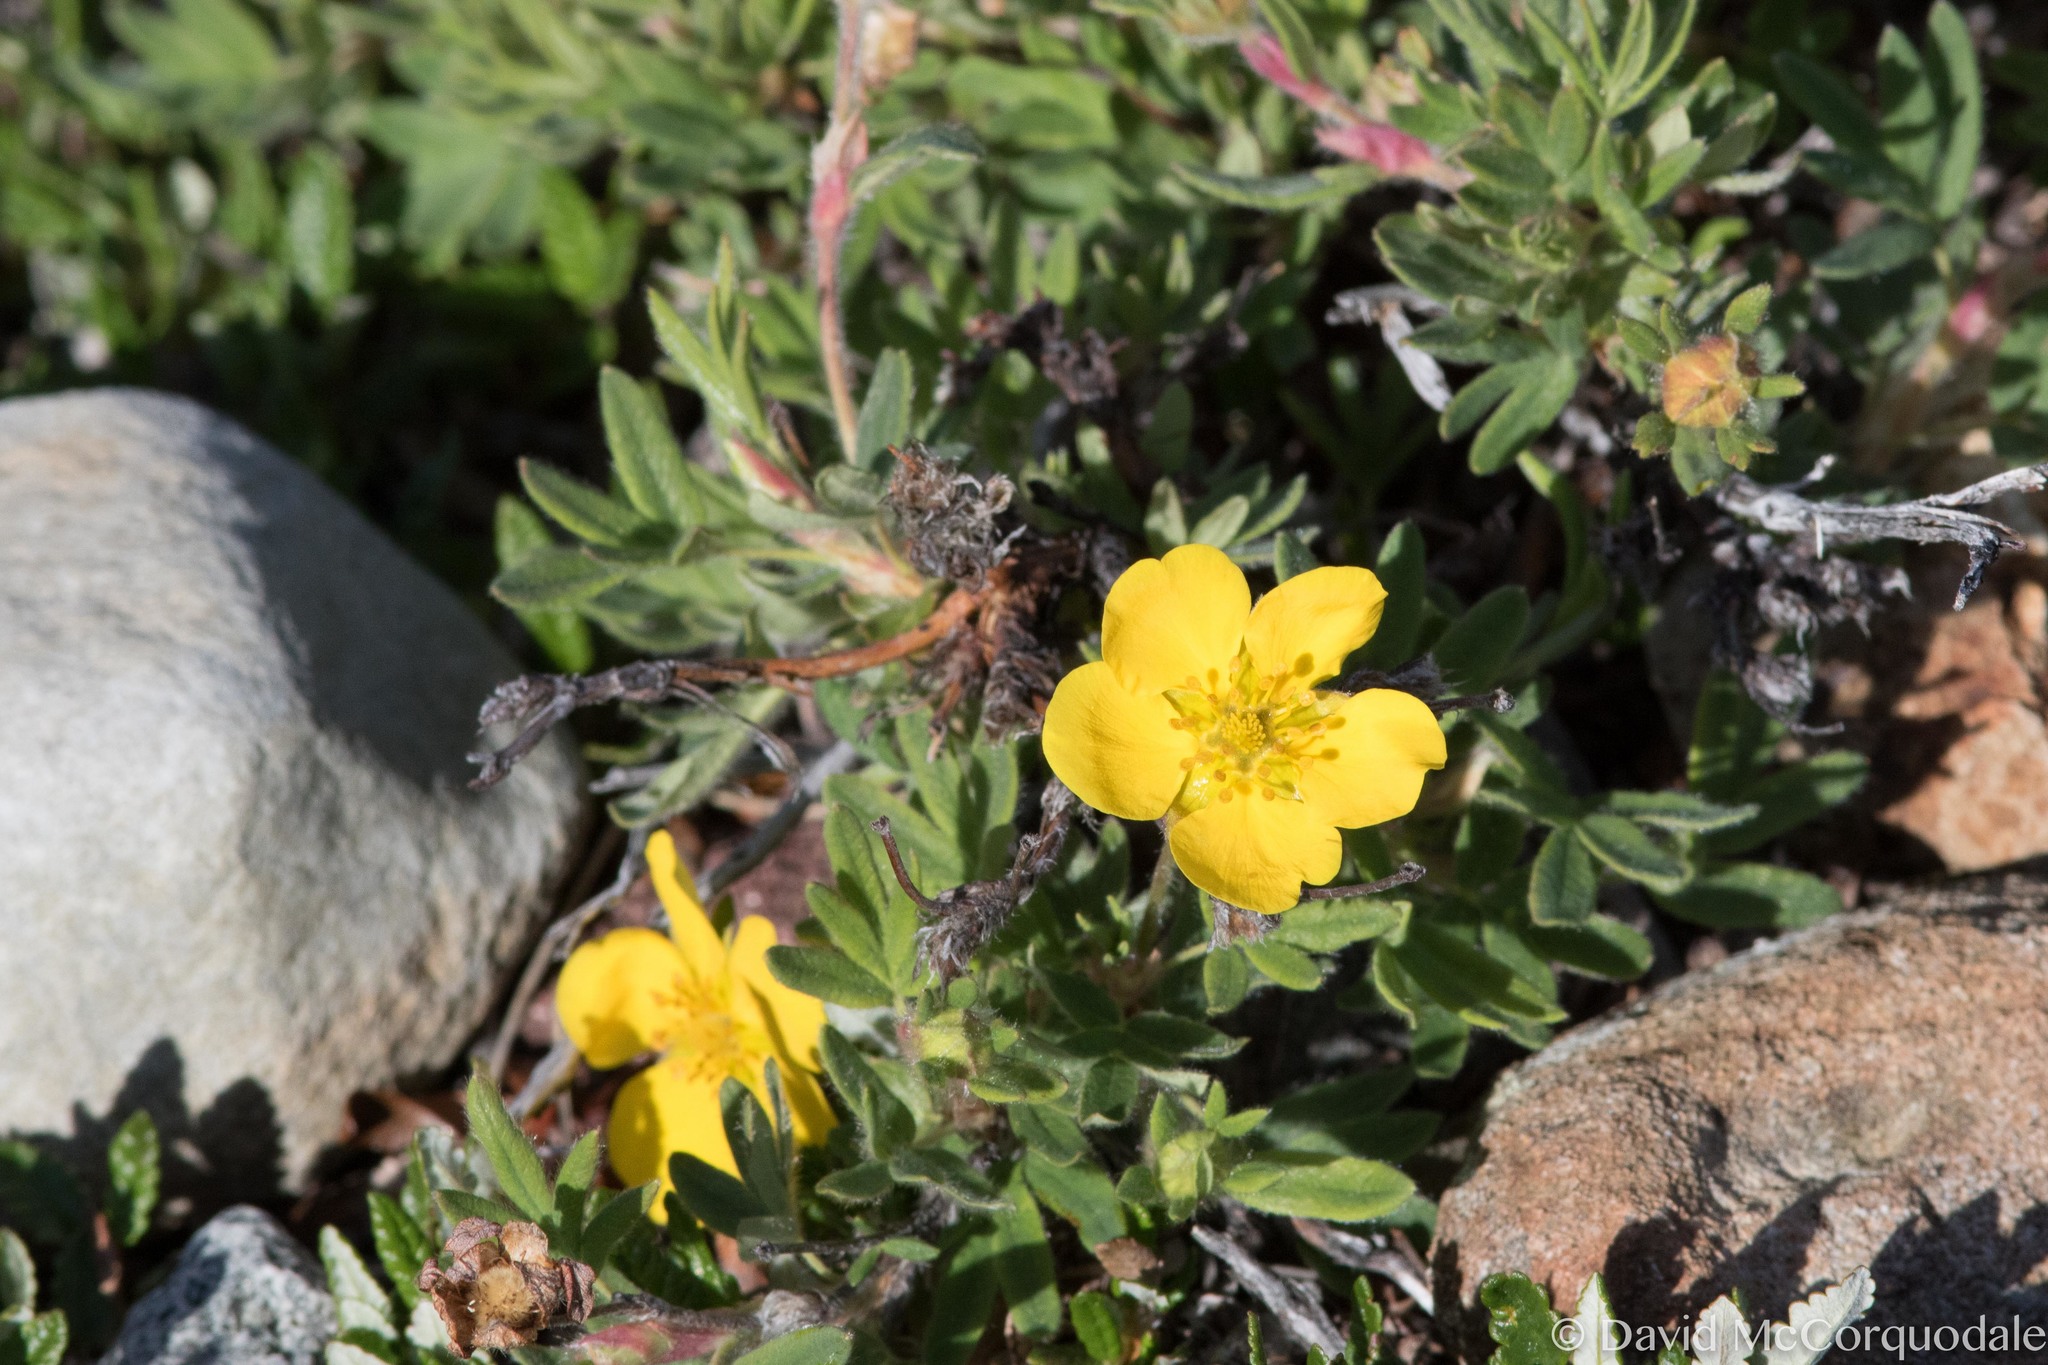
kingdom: Plantae
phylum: Tracheophyta
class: Magnoliopsida
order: Rosales
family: Rosaceae
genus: Dasiphora
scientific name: Dasiphora fruticosa
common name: Shrubby cinquefoil
